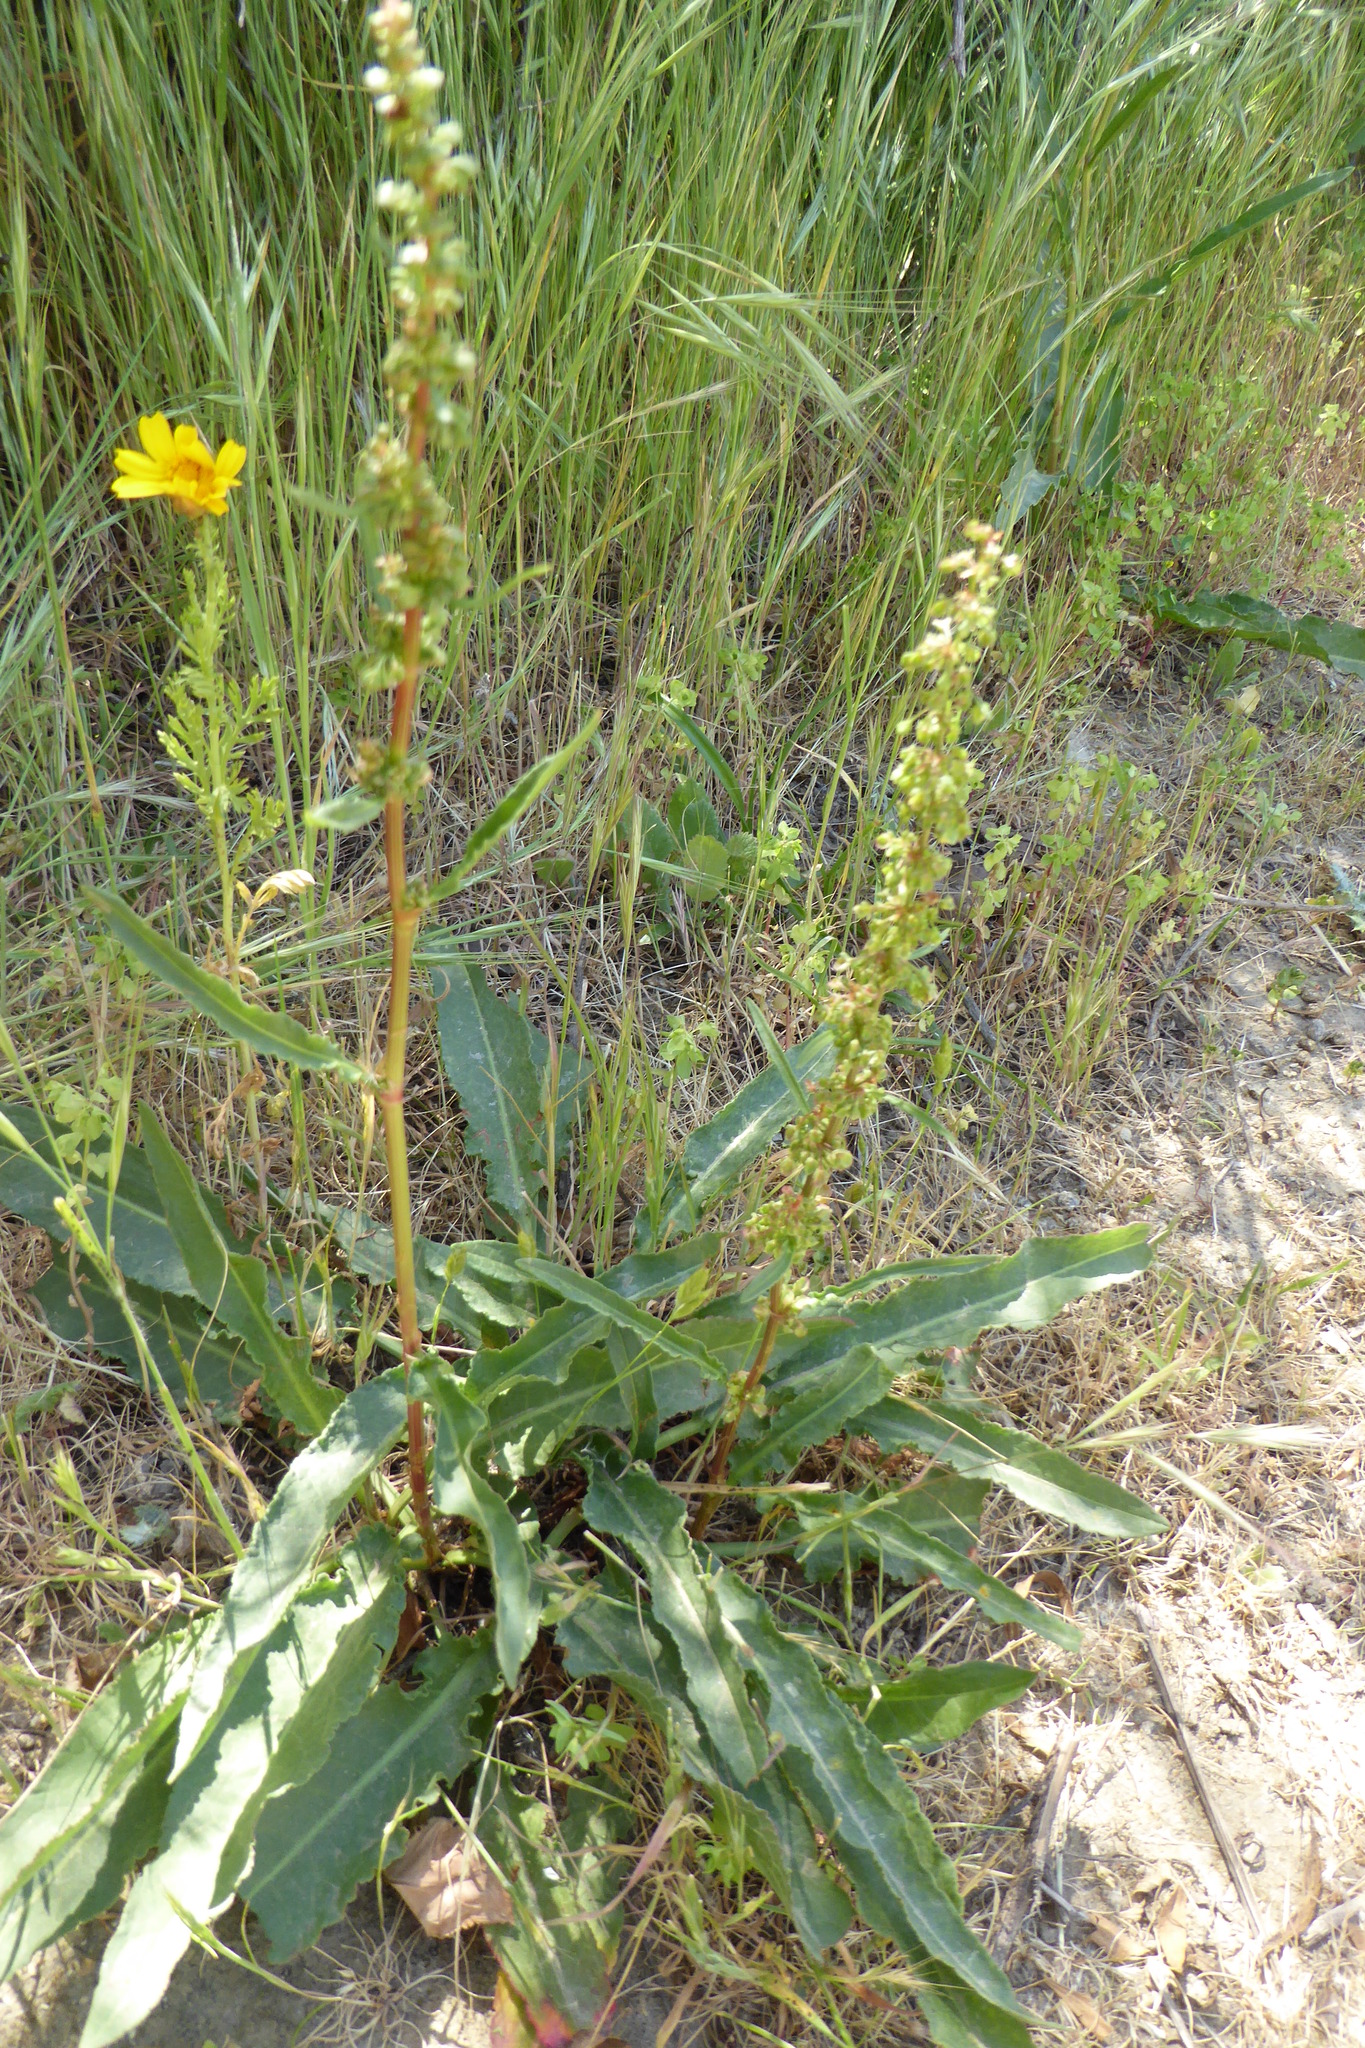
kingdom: Plantae
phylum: Tracheophyta
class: Magnoliopsida
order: Caryophyllales
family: Polygonaceae
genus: Rumex
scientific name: Rumex crispus
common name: Curled dock
